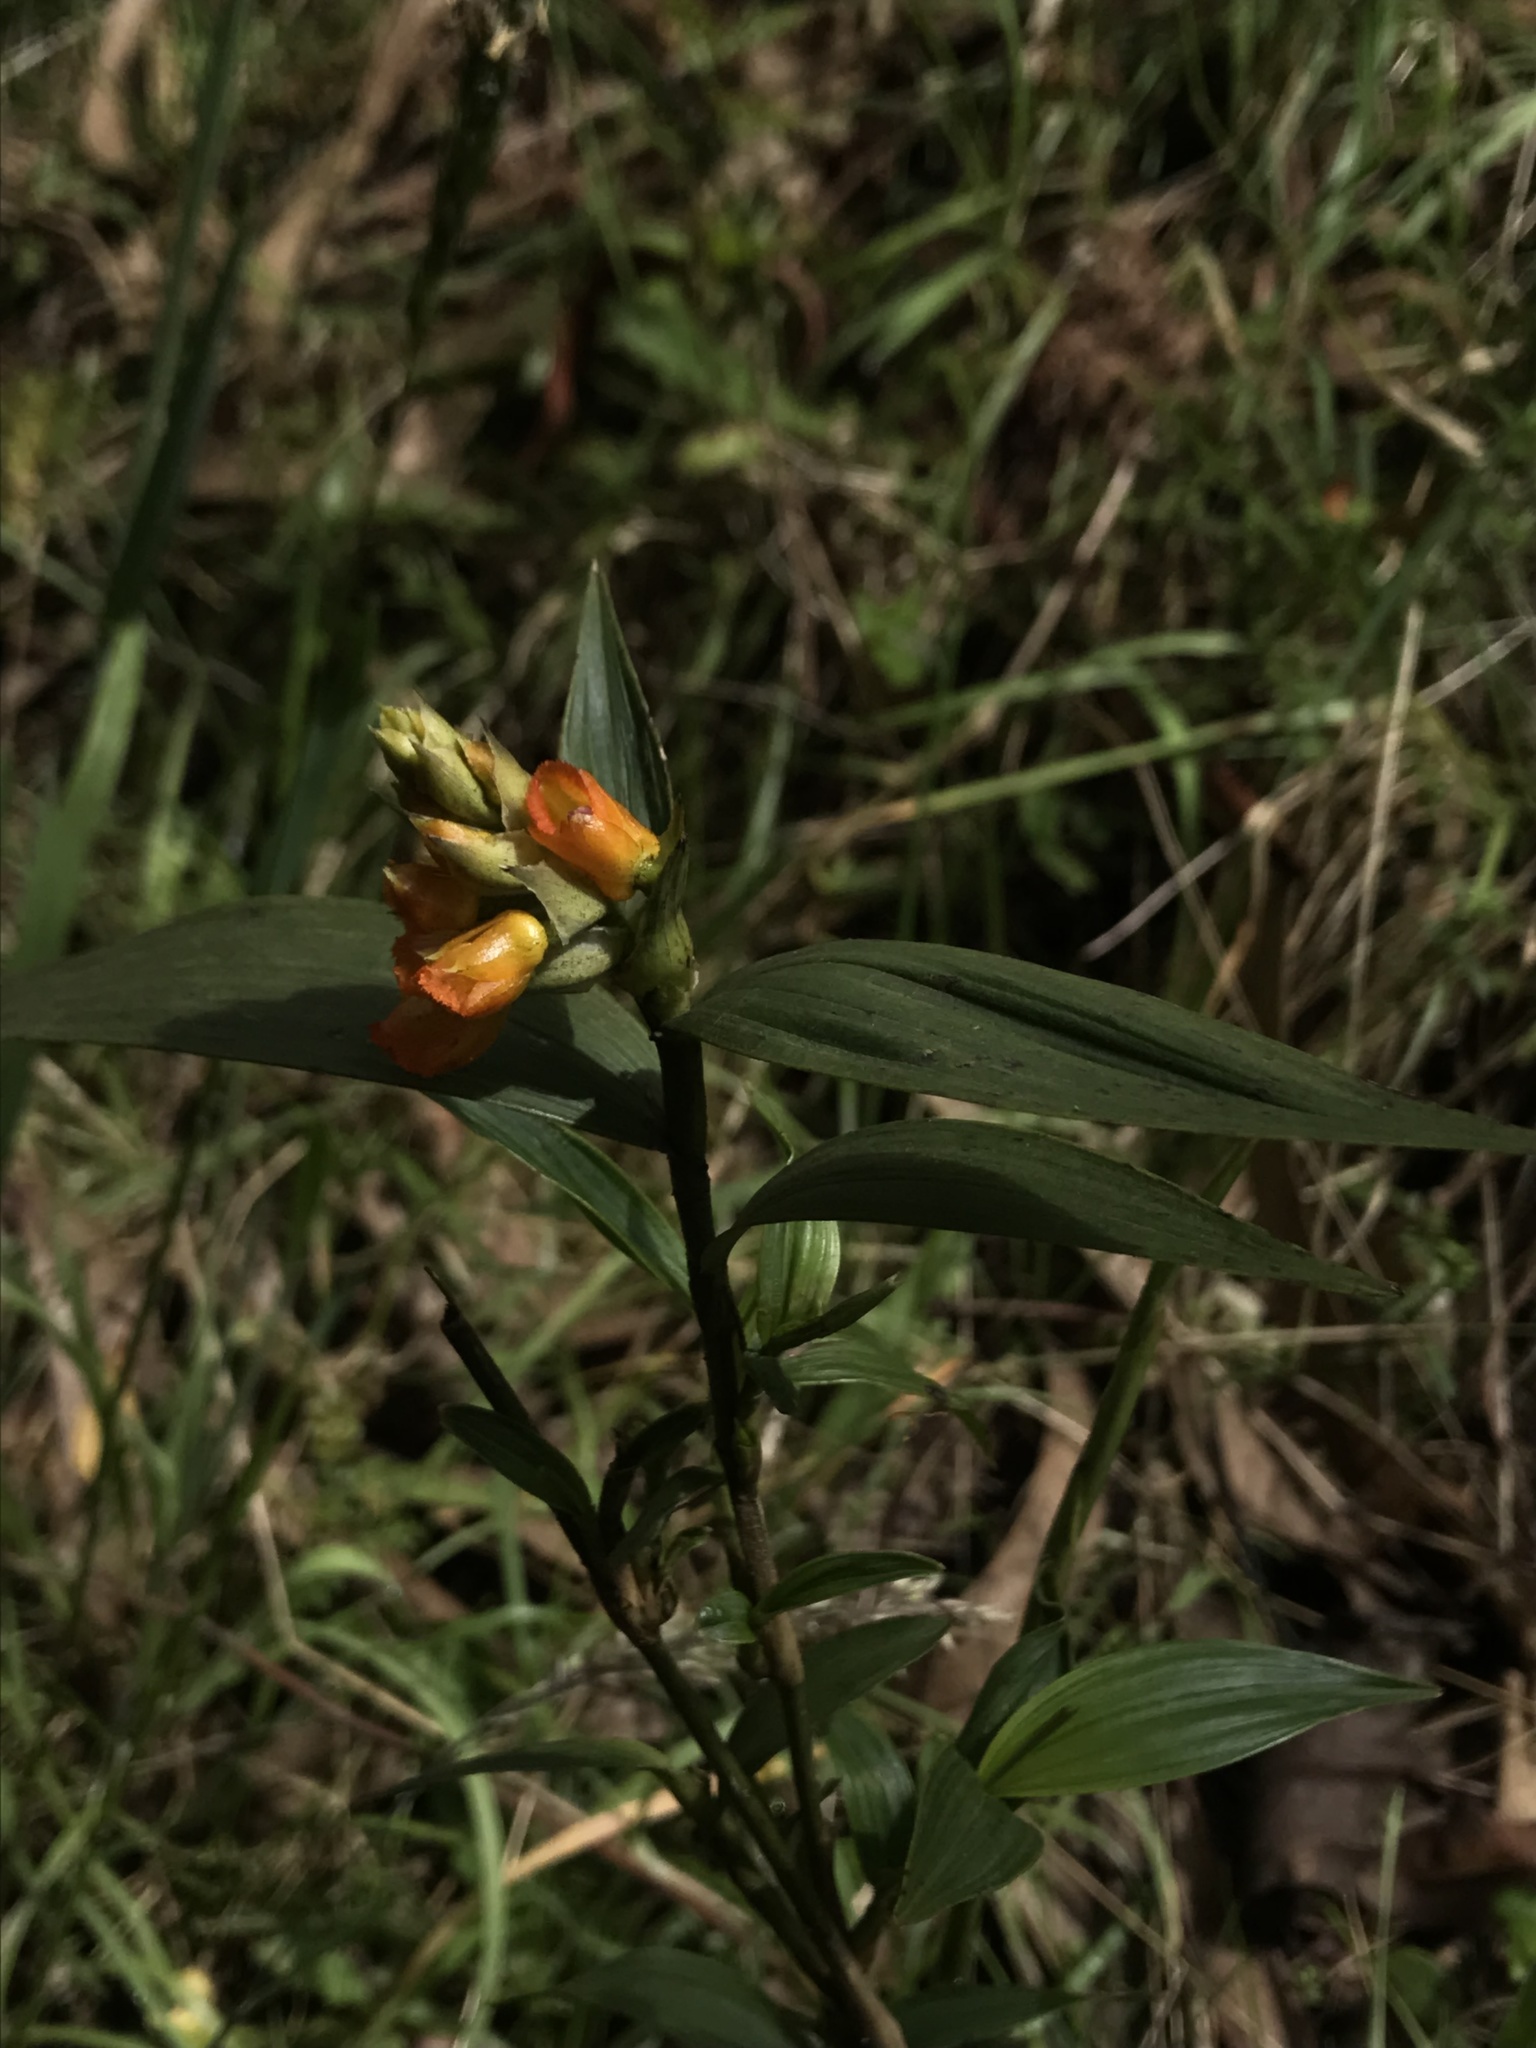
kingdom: Plantae
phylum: Tracheophyta
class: Liliopsida
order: Asparagales
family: Orchidaceae
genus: Elleanthus
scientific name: Elleanthus aurantiacus
